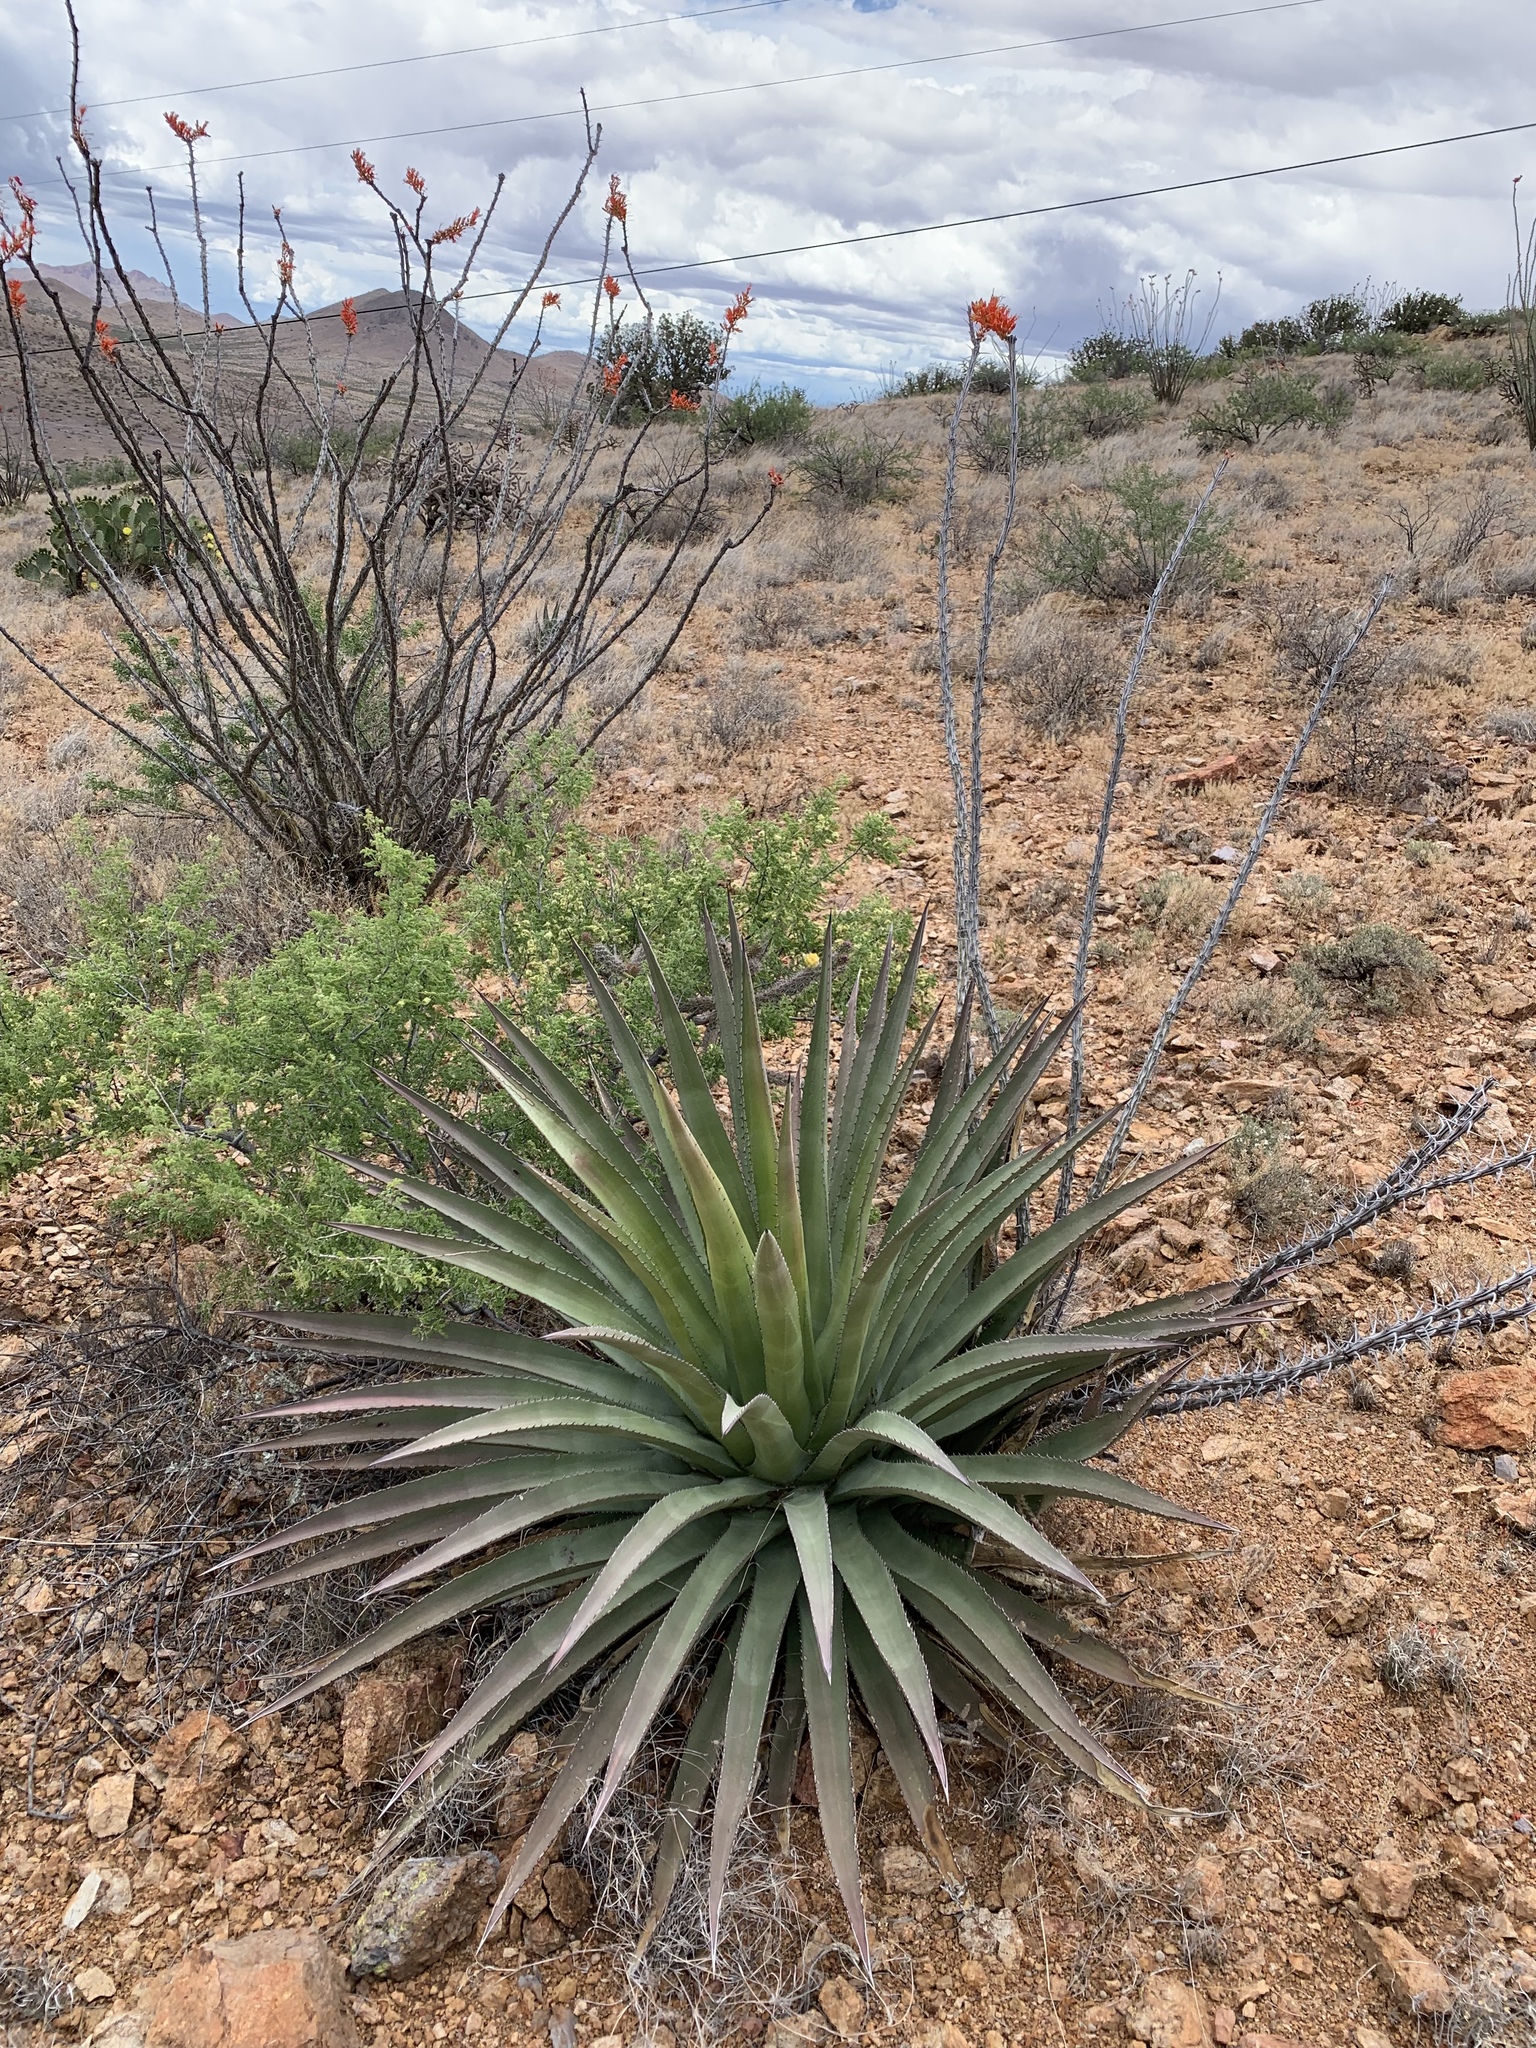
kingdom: Plantae
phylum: Tracheophyta
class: Liliopsida
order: Asparagales
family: Asparagaceae
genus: Agave
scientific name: Agave palmeri
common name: Palmer agave
